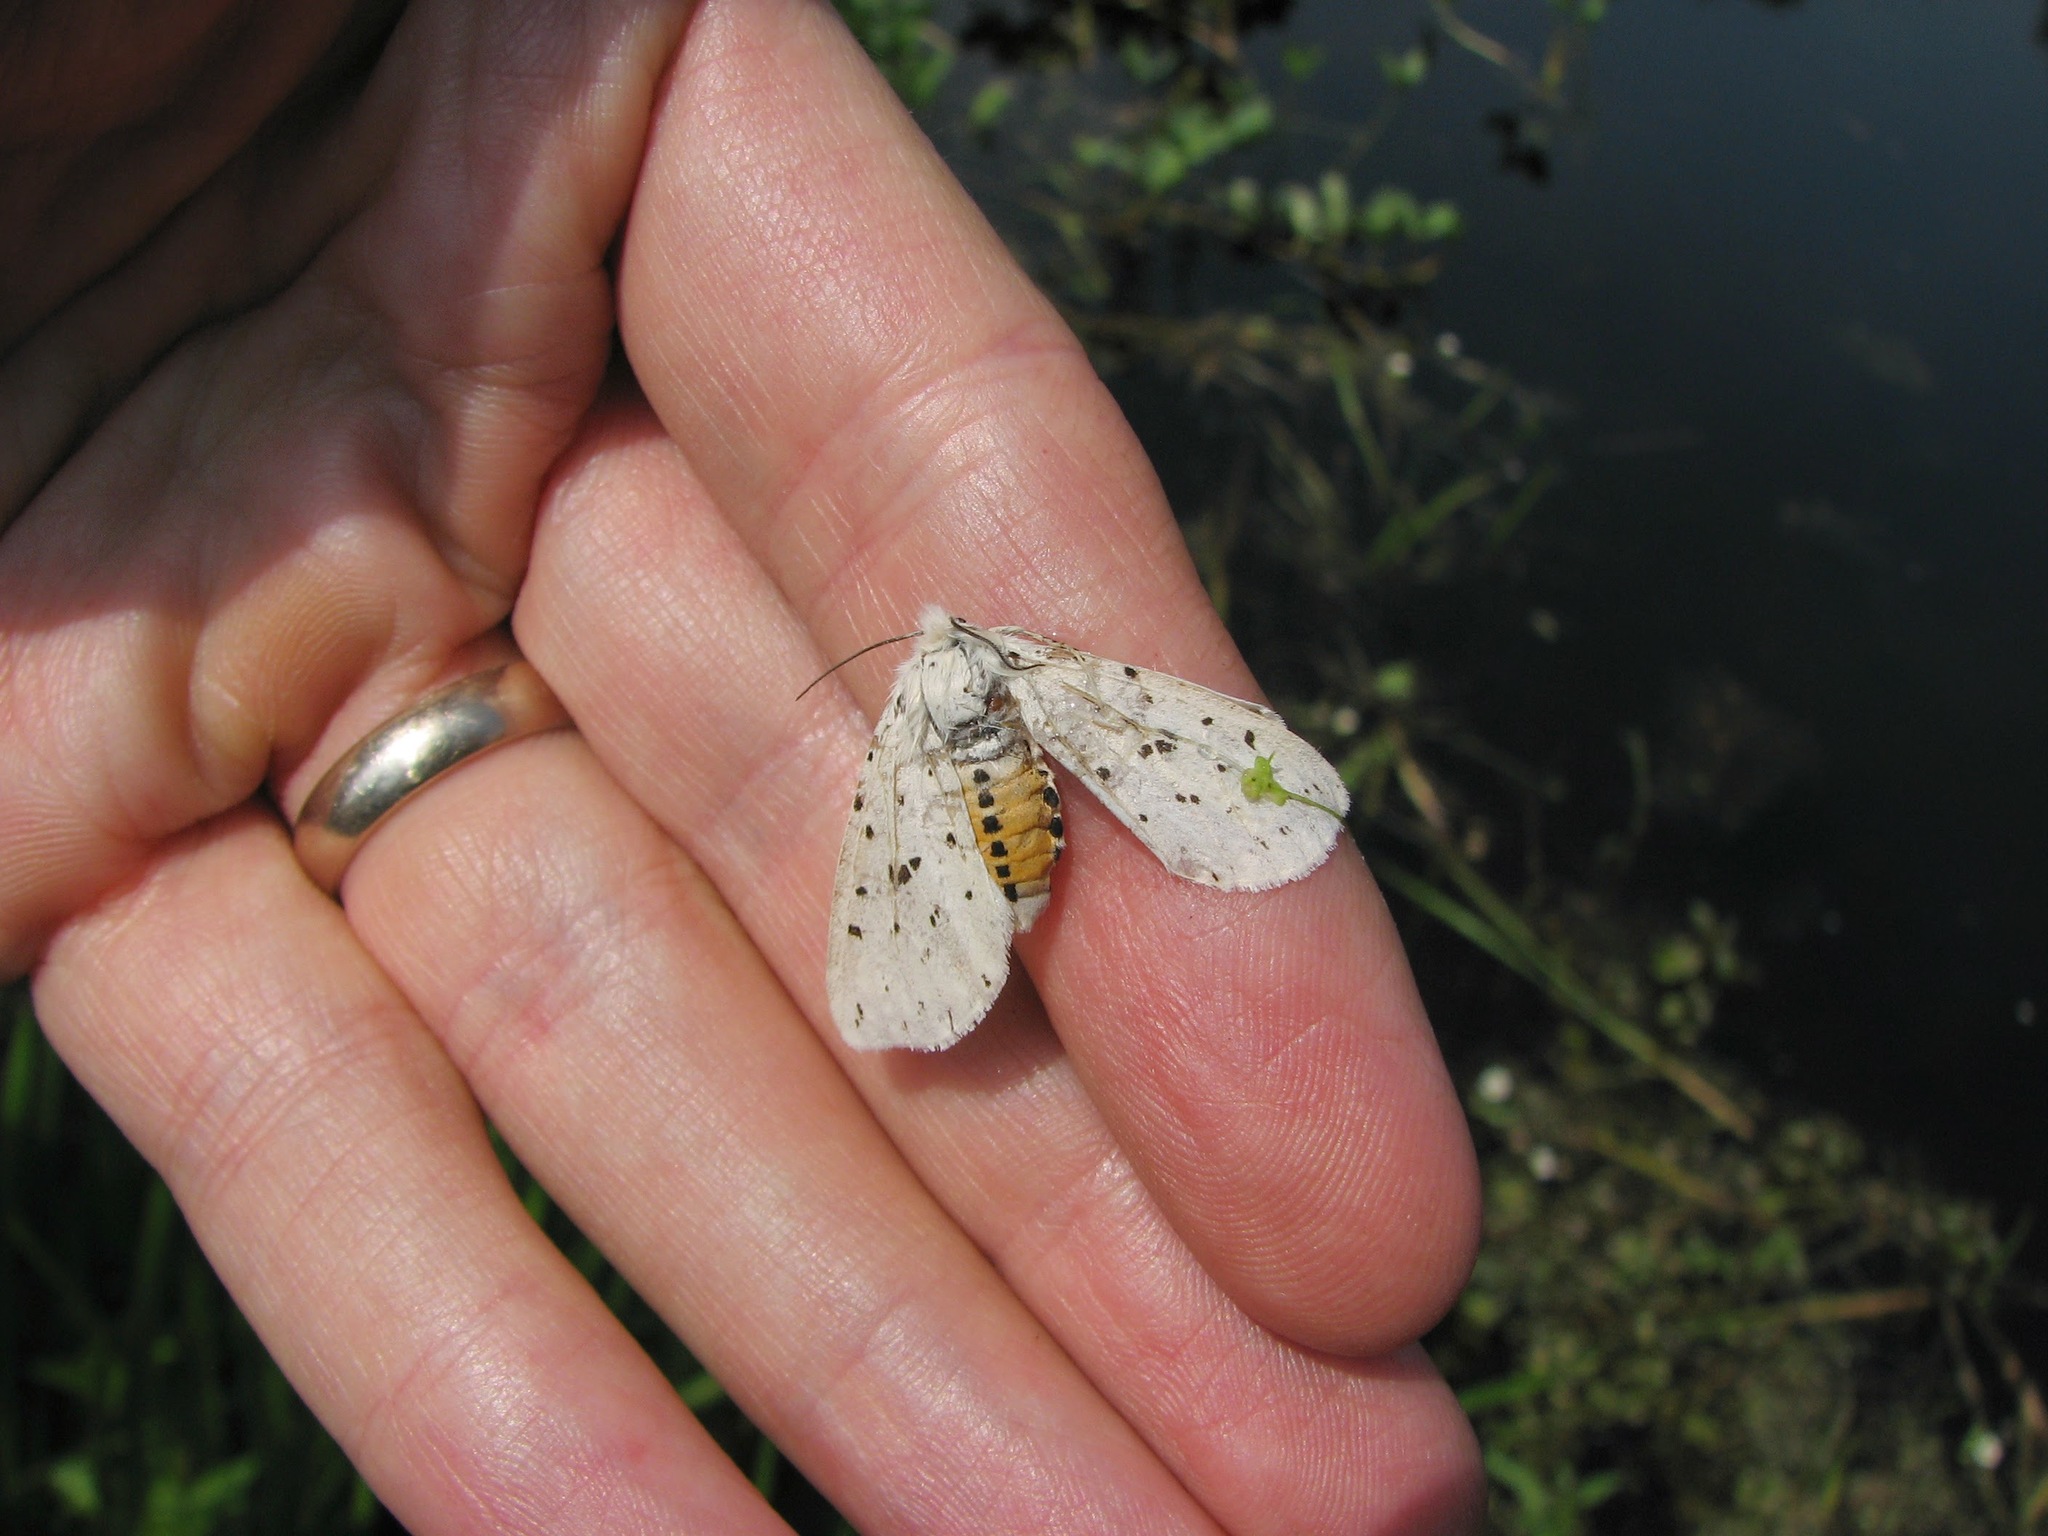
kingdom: Animalia
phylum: Arthropoda
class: Insecta
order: Lepidoptera
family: Erebidae
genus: Spilosoma
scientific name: Spilosoma lubricipeda
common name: White ermine
